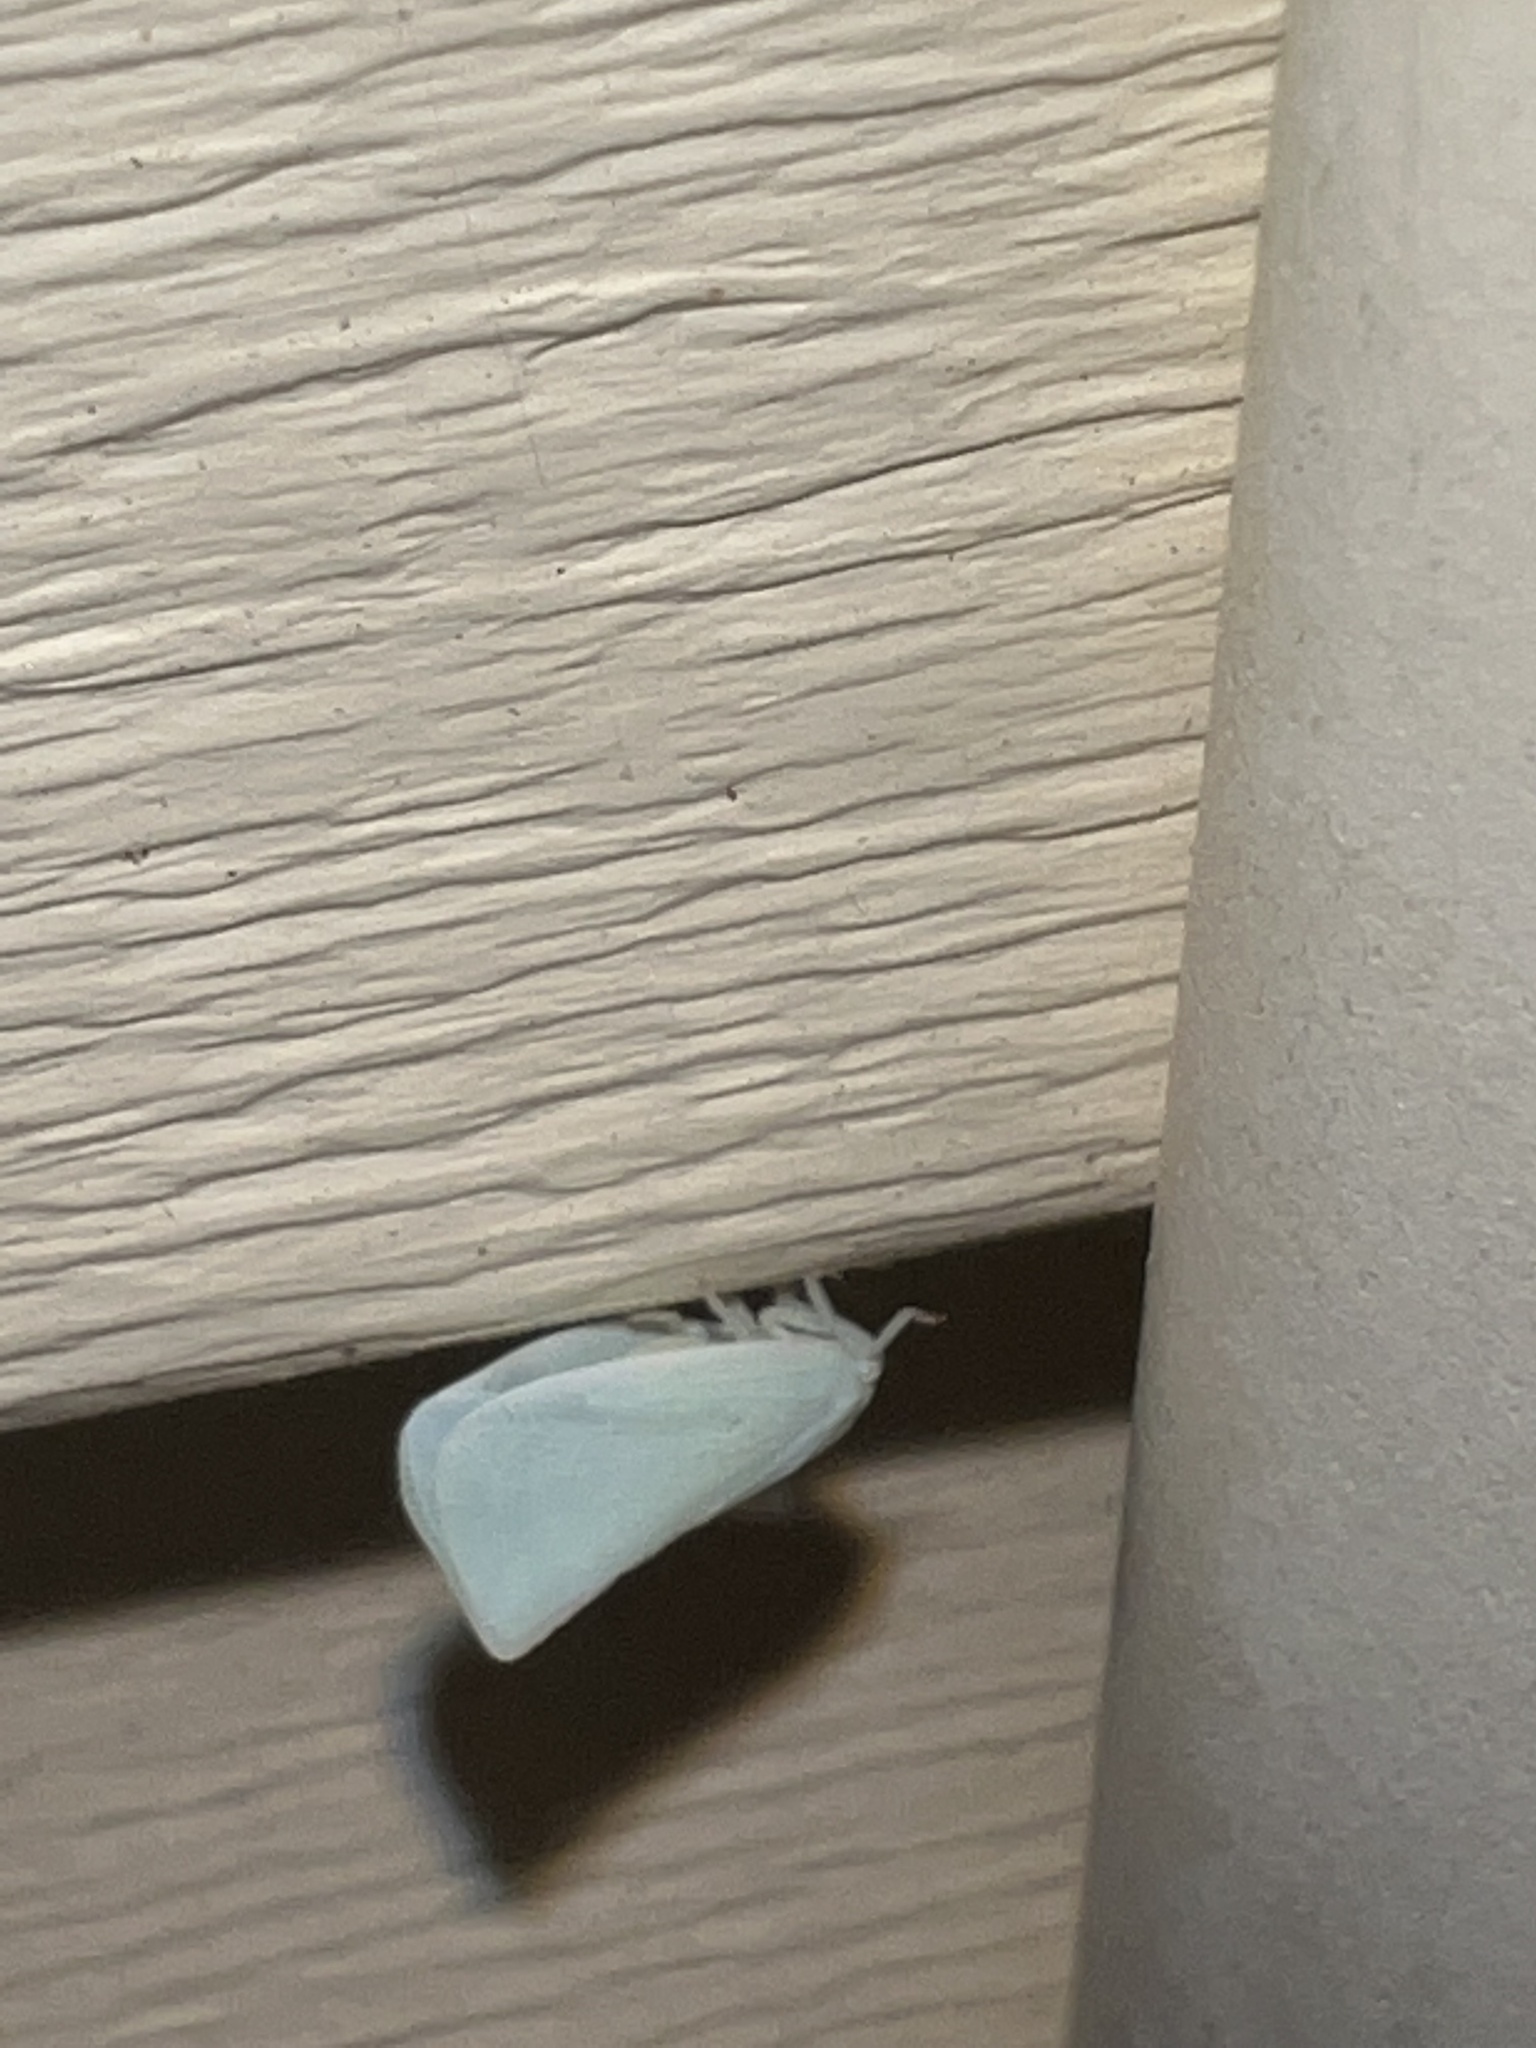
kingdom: Animalia
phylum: Arthropoda
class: Insecta
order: Hemiptera
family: Flatidae
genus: Flatormenis
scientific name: Flatormenis proxima
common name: Northern flatid planthopper
